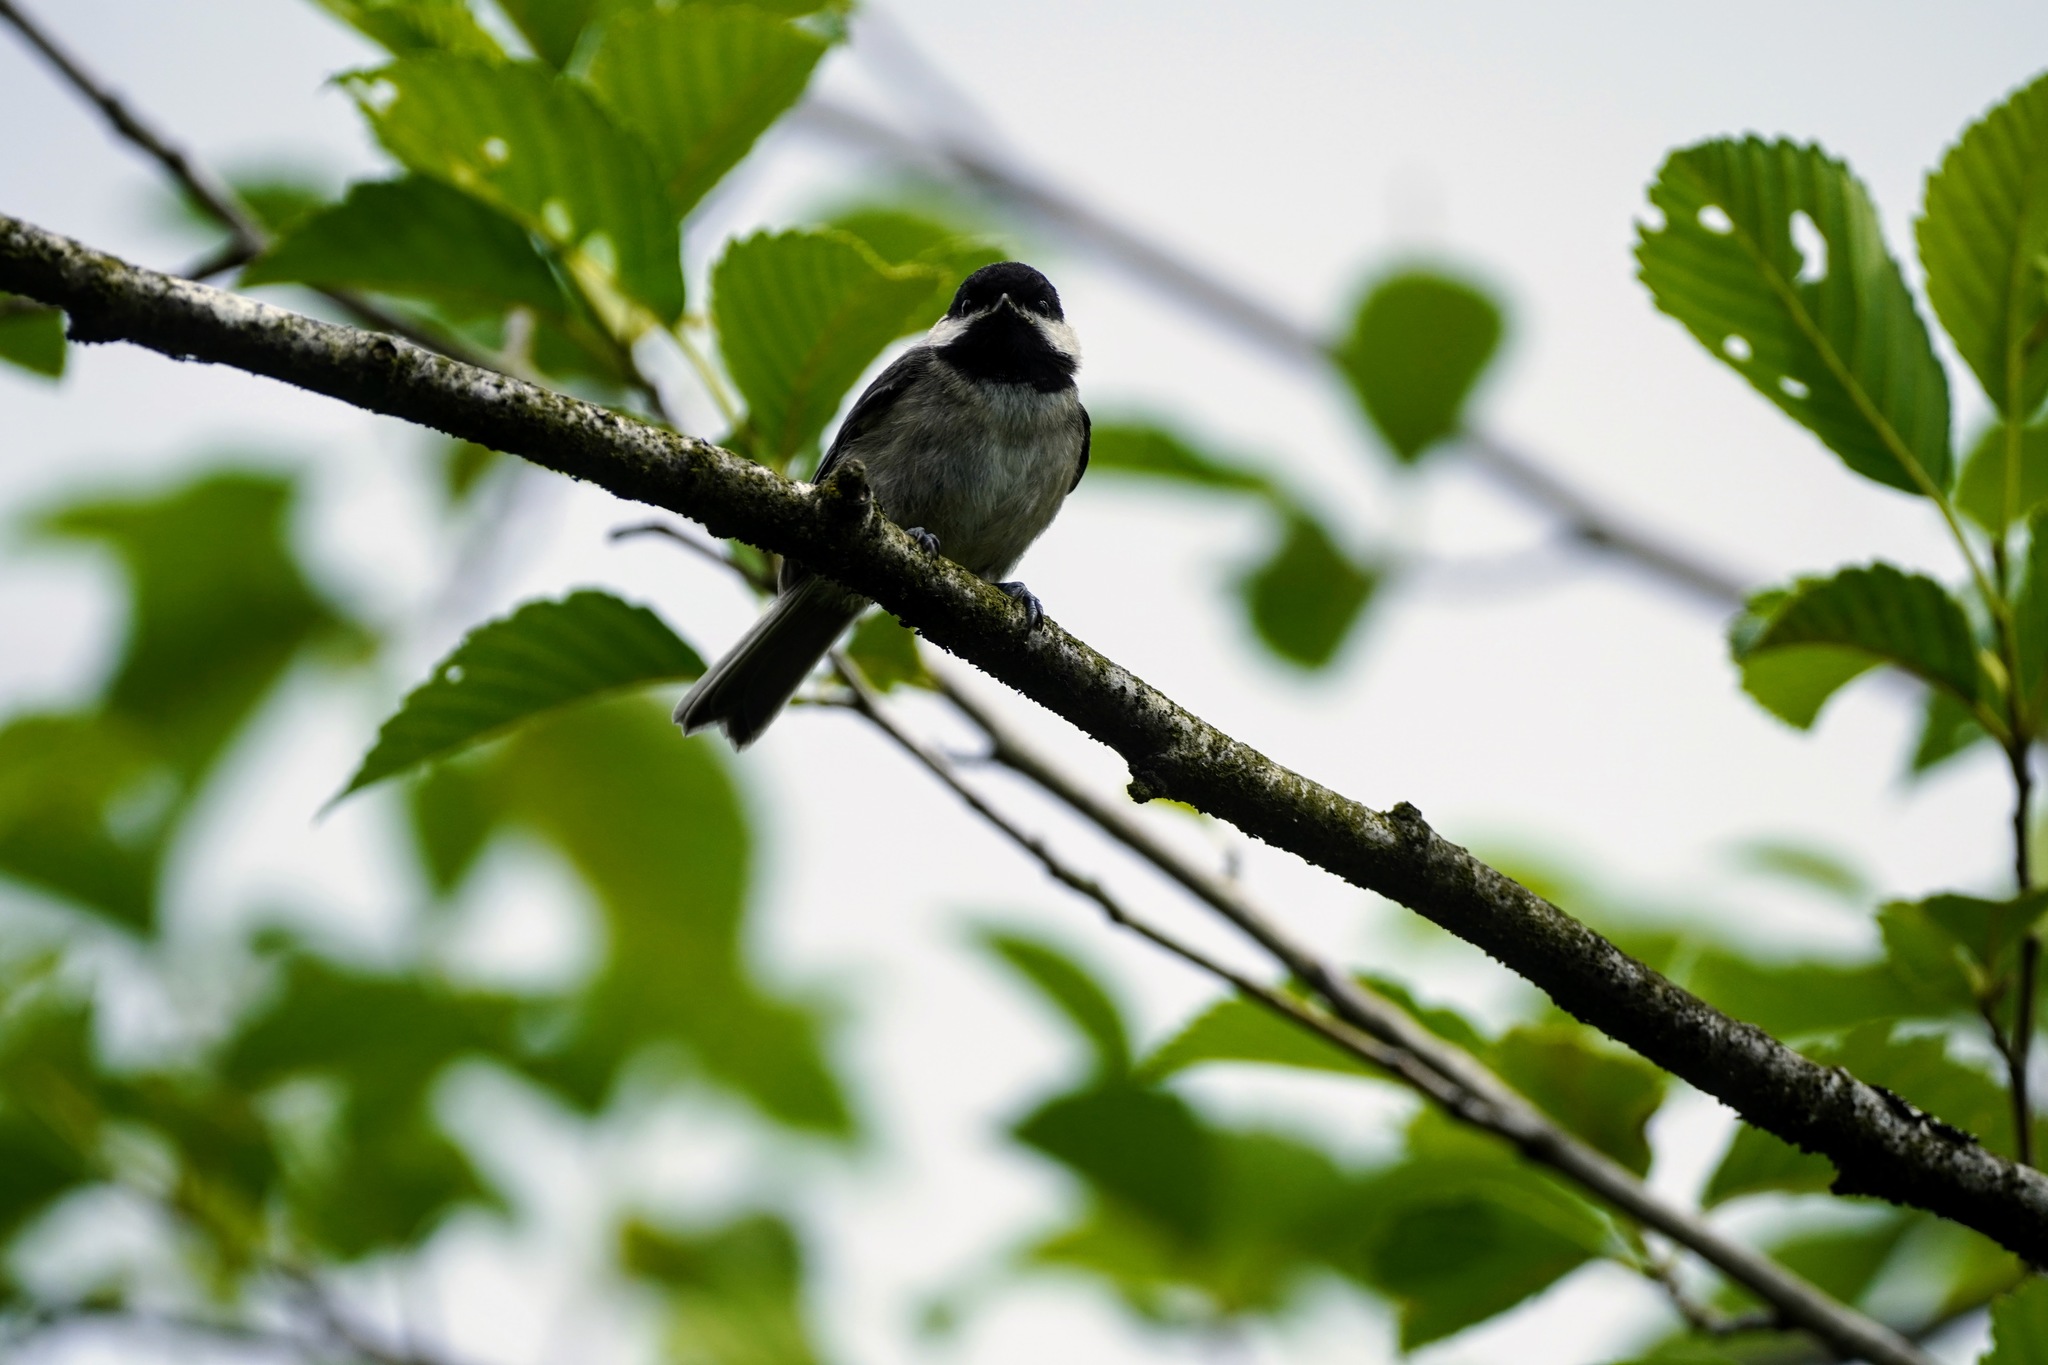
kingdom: Animalia
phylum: Chordata
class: Aves
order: Passeriformes
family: Paridae
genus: Poecile
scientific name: Poecile atricapillus
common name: Black-capped chickadee
